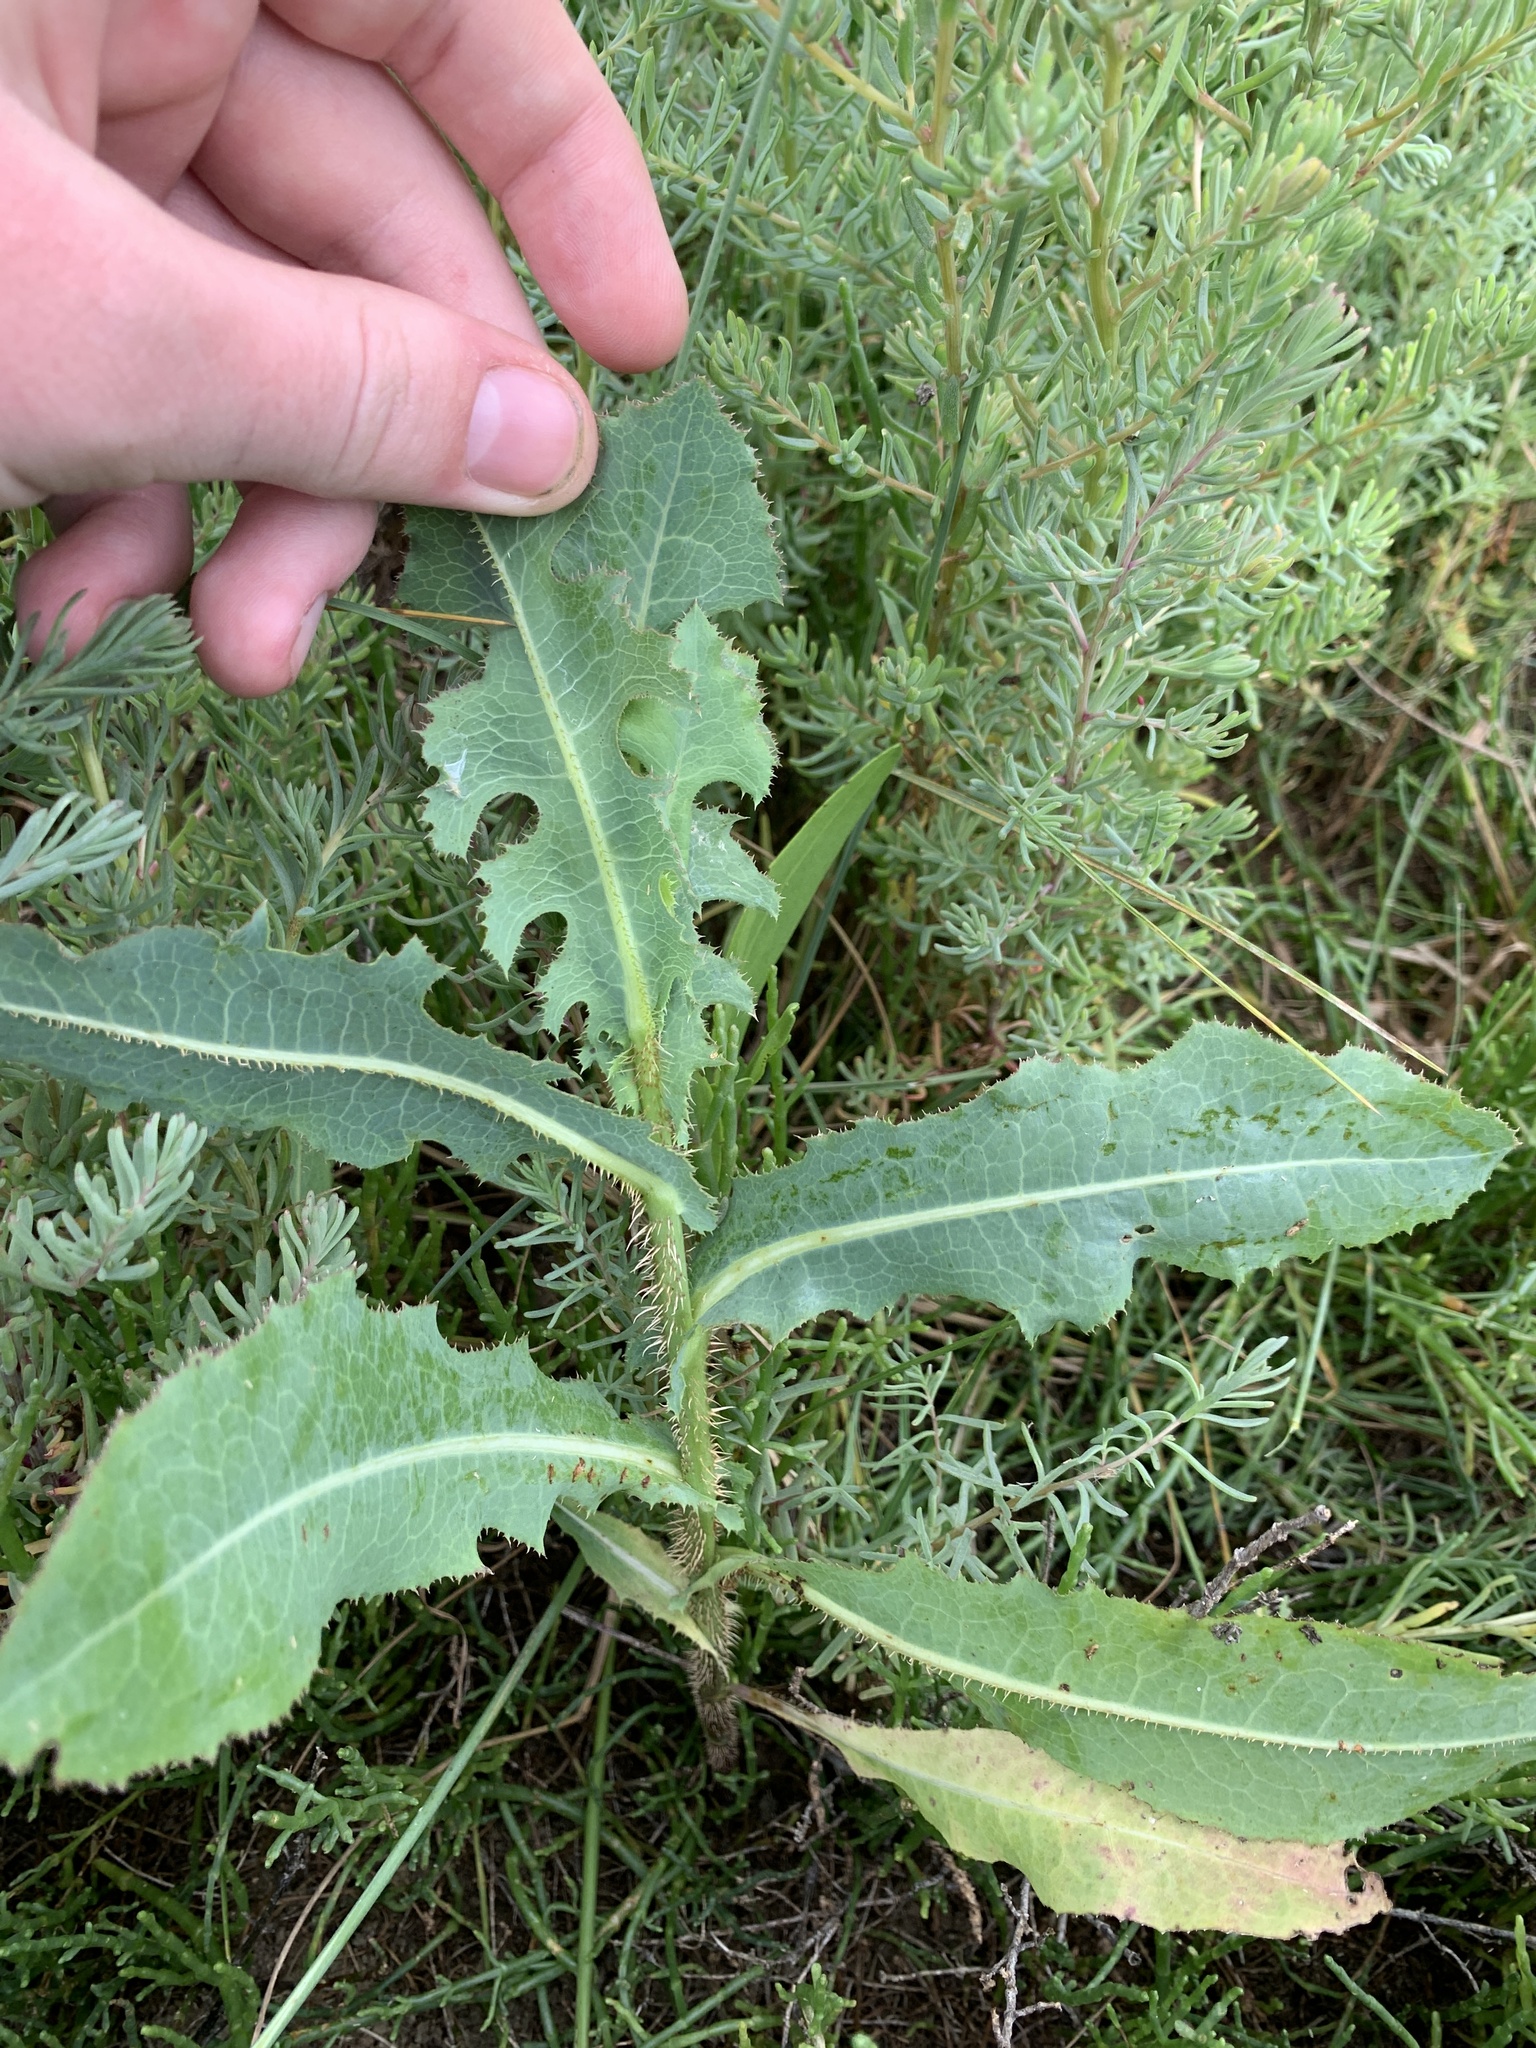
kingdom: Plantae
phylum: Tracheophyta
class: Magnoliopsida
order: Asterales
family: Asteraceae
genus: Lactuca
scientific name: Lactuca serriola
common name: Prickly lettuce
